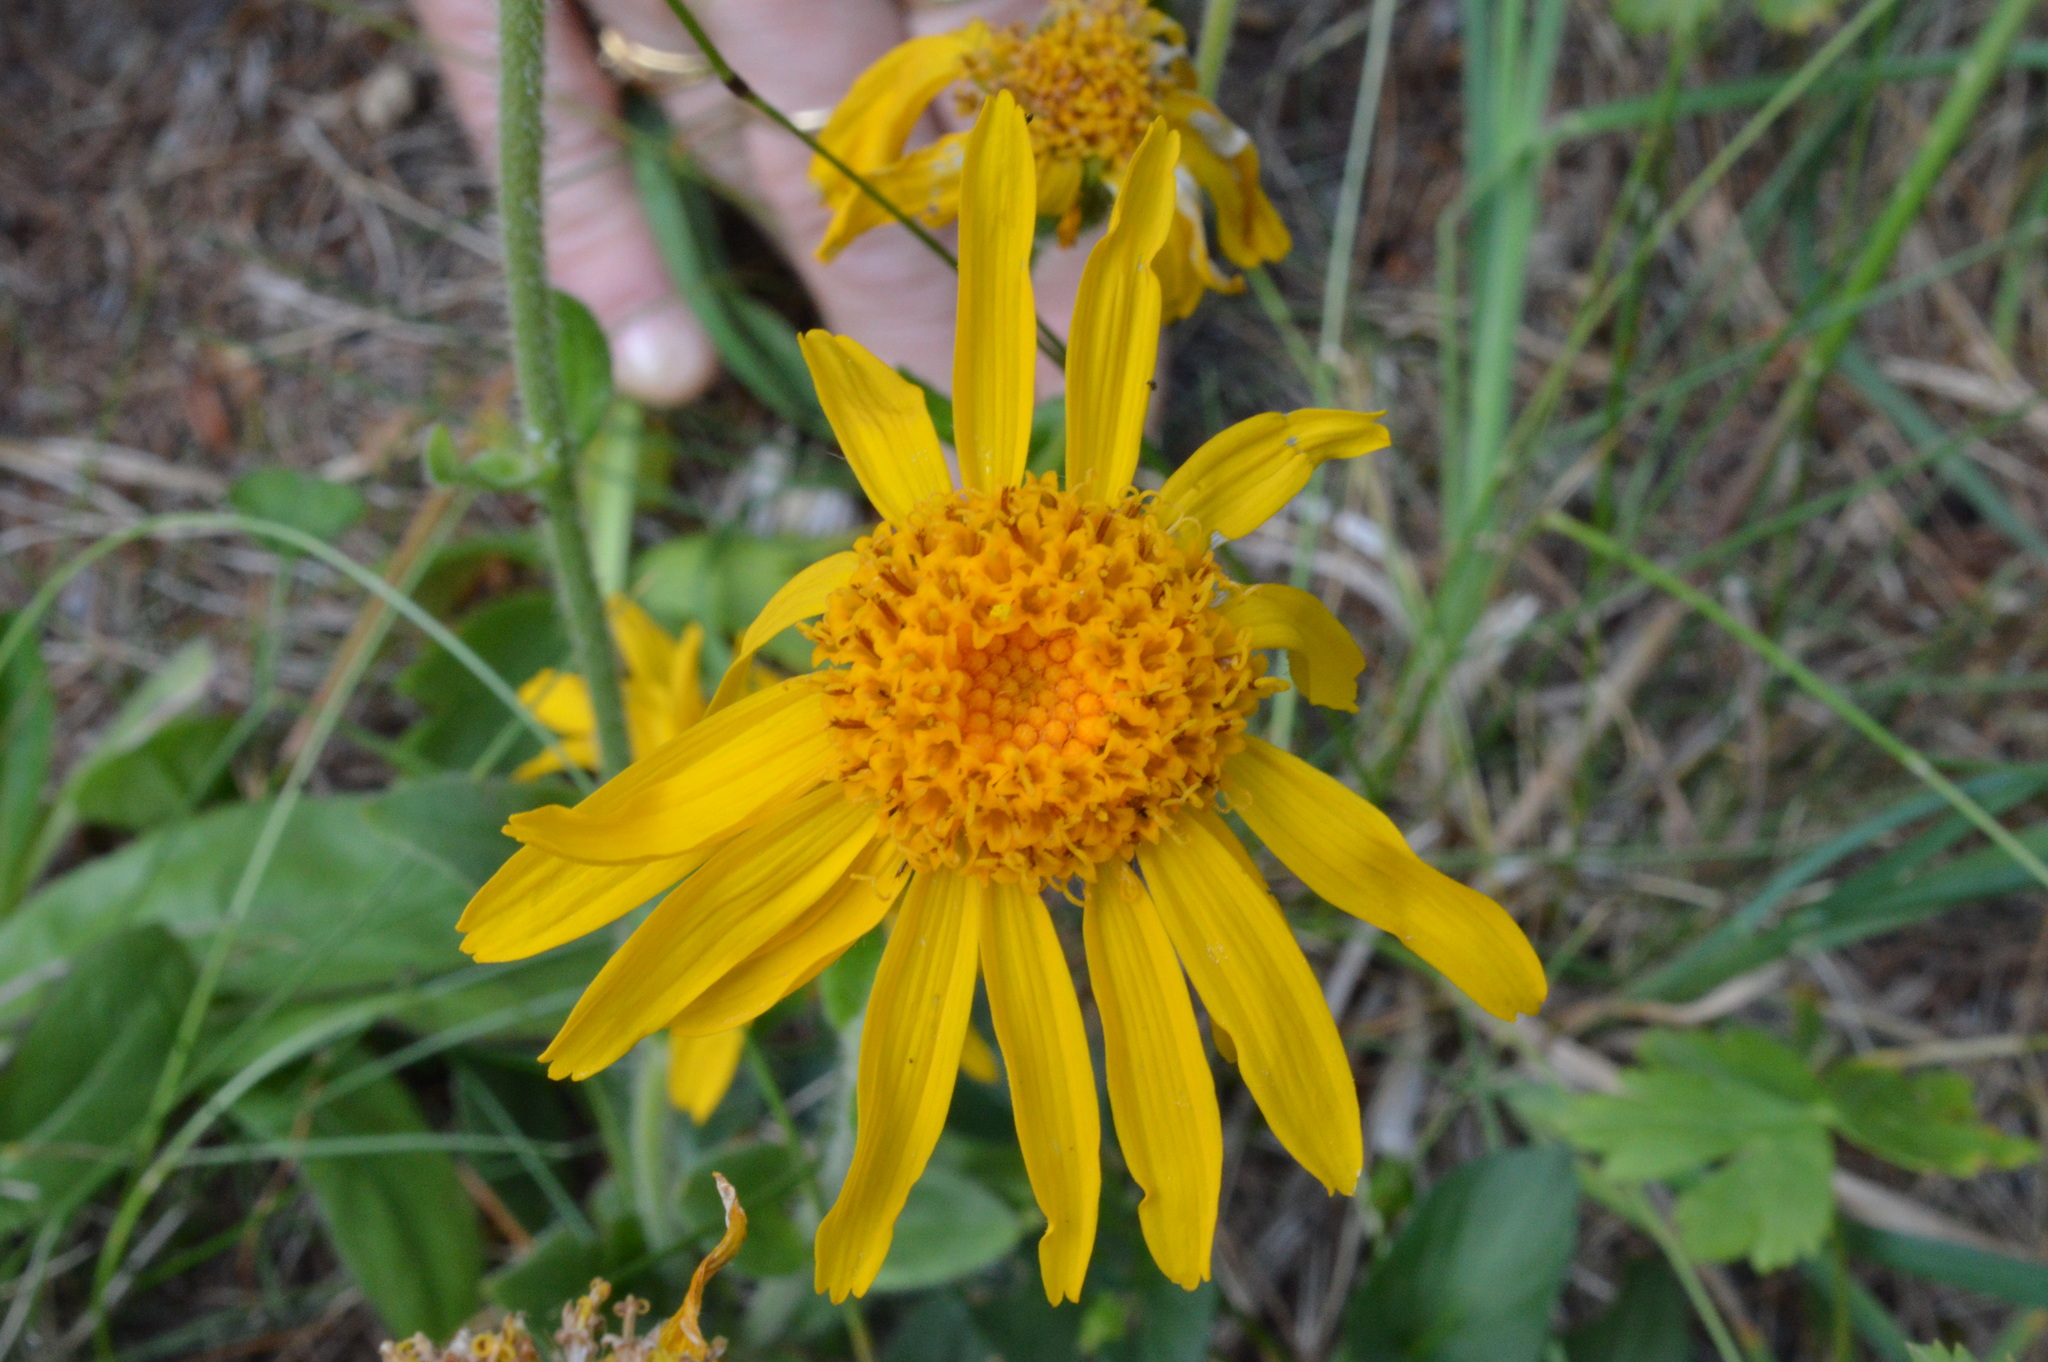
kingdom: Plantae
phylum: Tracheophyta
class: Magnoliopsida
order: Asterales
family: Asteraceae
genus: Arnica
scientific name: Arnica montana
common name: Leopard's bane
